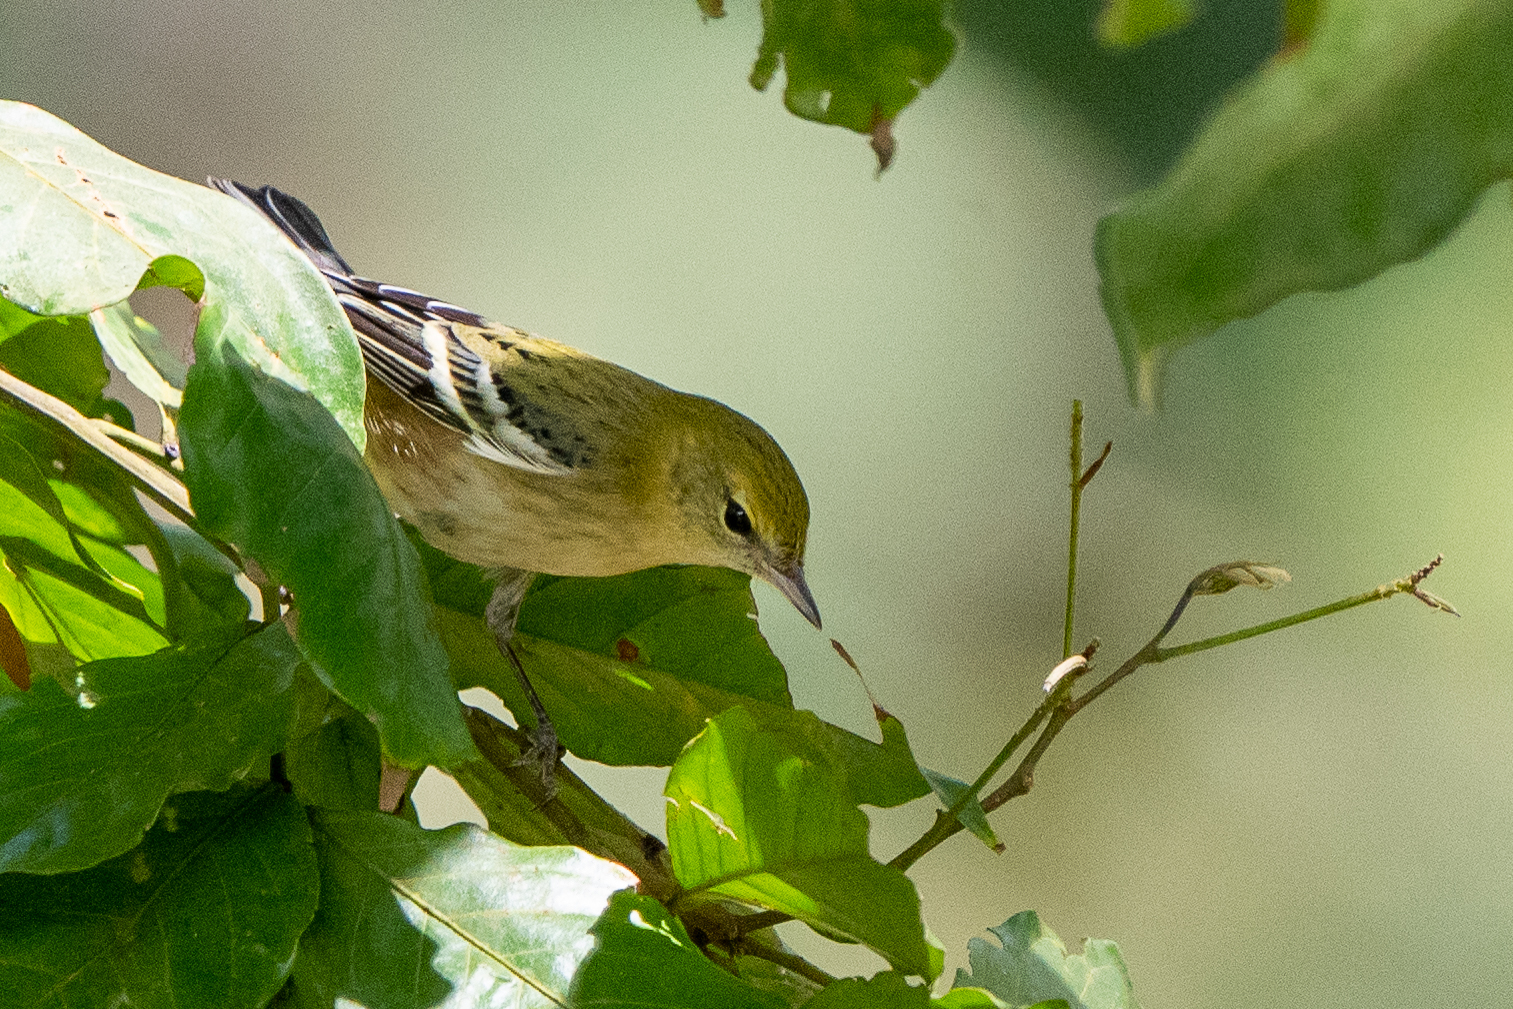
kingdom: Animalia
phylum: Chordata
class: Aves
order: Passeriformes
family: Parulidae
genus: Setophaga
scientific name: Setophaga castanea
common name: Bay-breasted warbler
